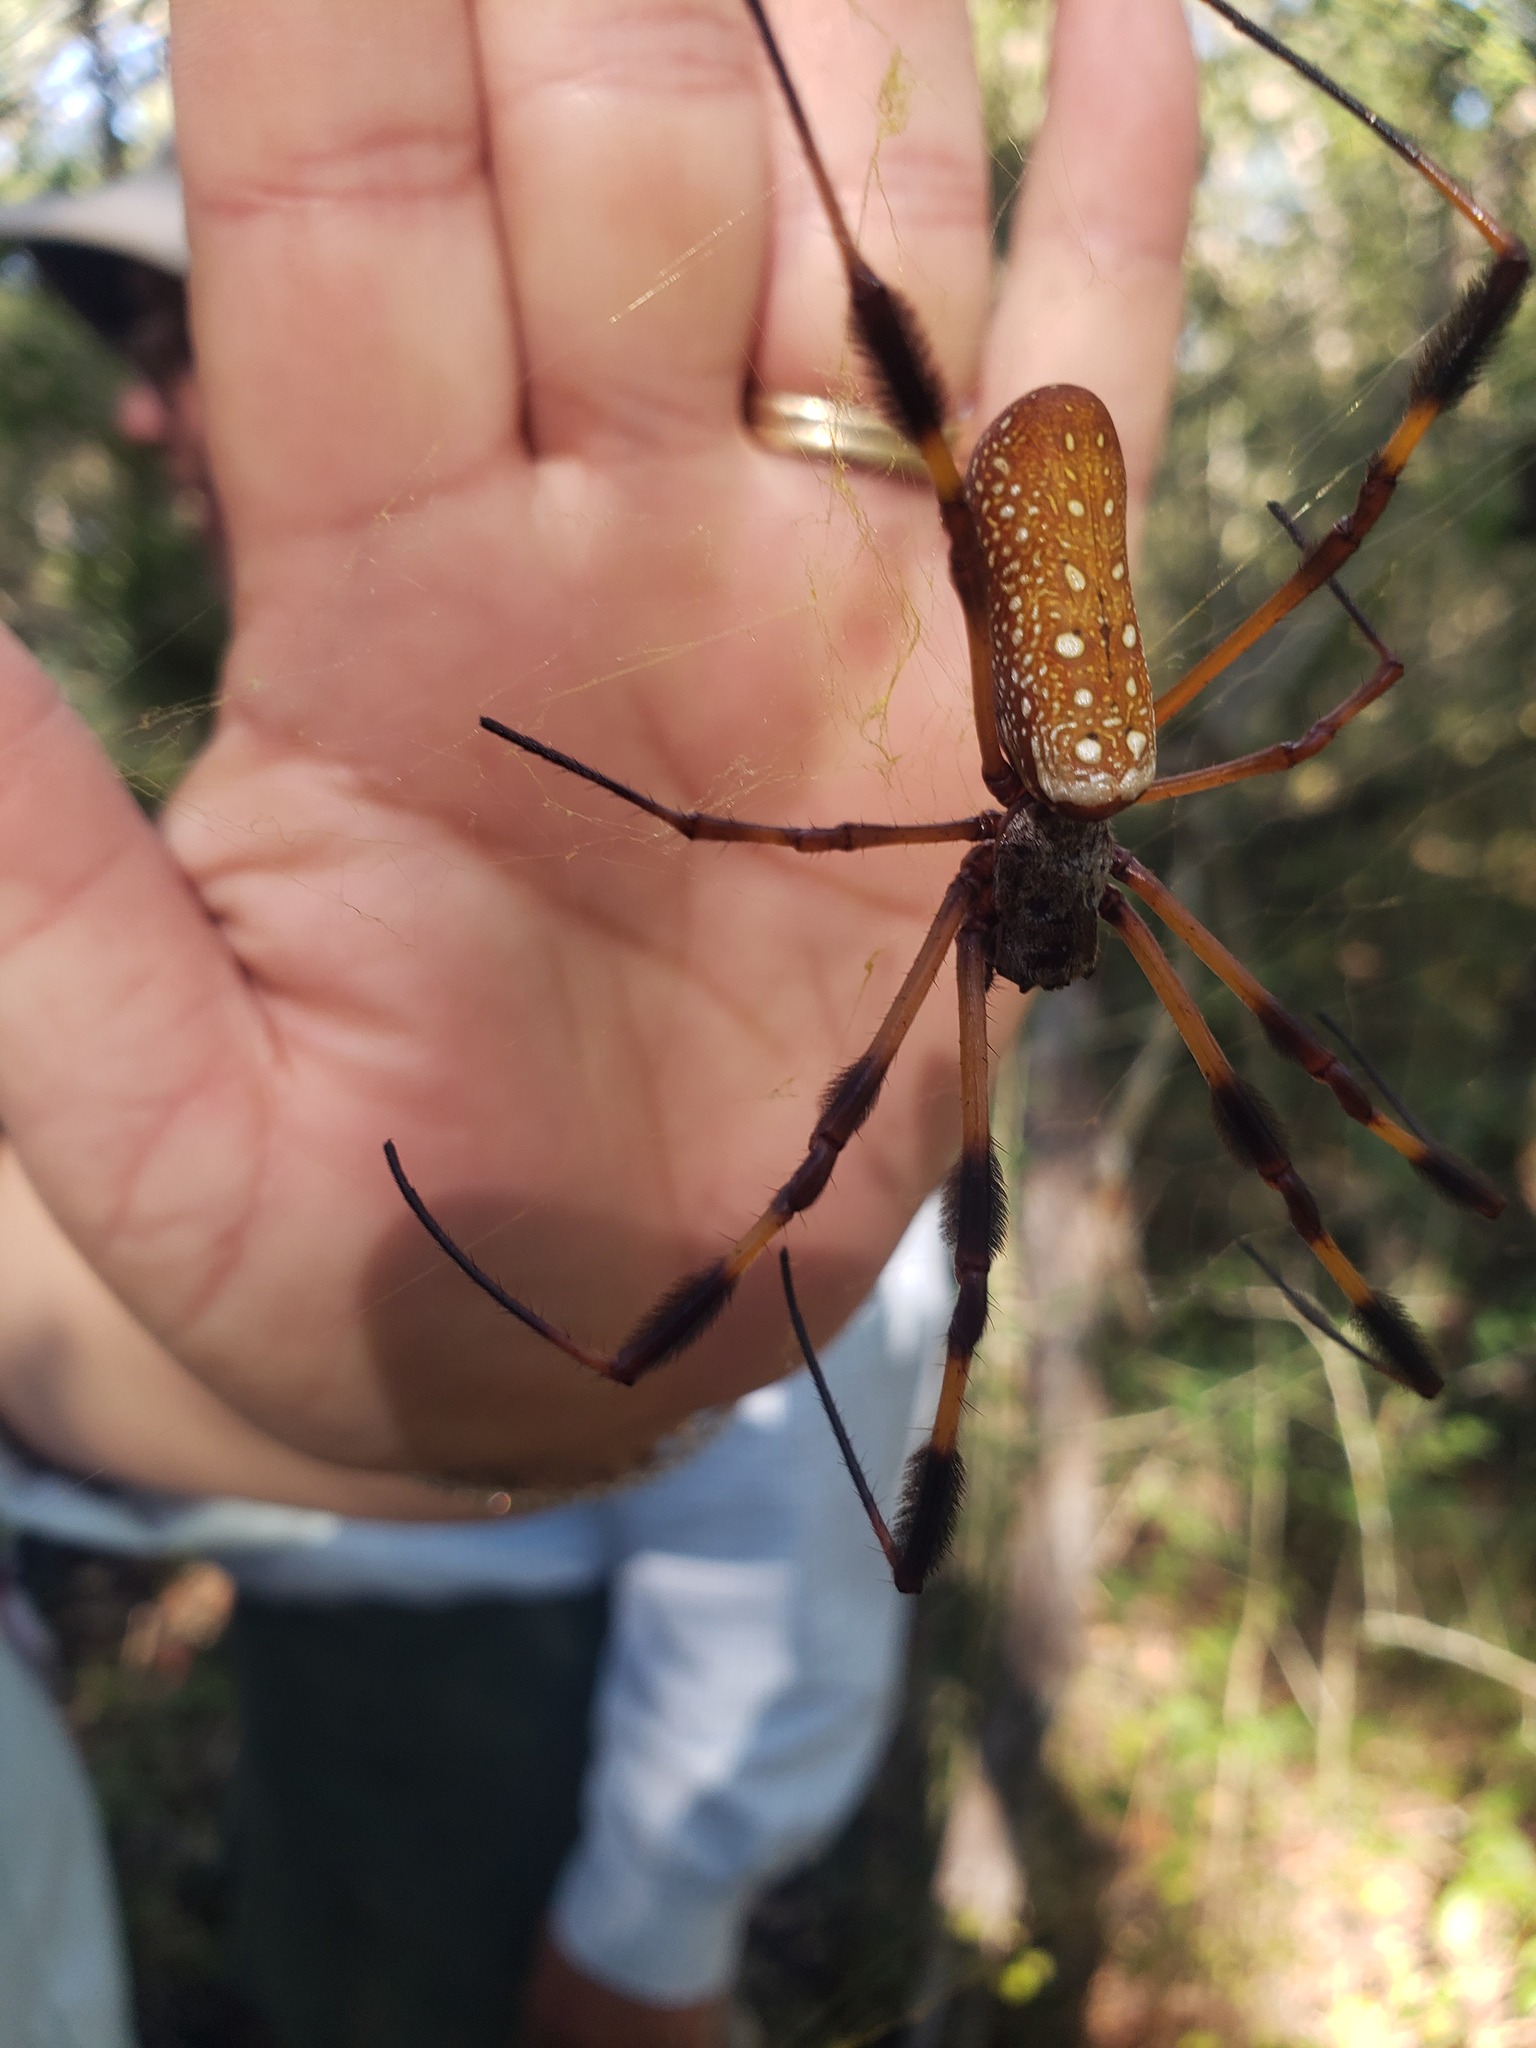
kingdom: Animalia
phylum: Arthropoda
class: Arachnida
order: Araneae
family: Araneidae
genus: Trichonephila
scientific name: Trichonephila clavipes
